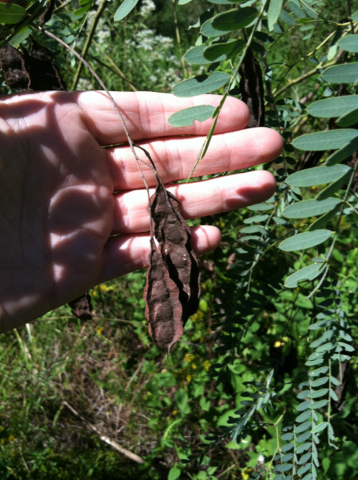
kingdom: Plantae
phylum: Tracheophyta
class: Magnoliopsida
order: Fabales
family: Fabaceae
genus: Sesbania
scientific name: Sesbania drummondii
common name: Poison-bean
